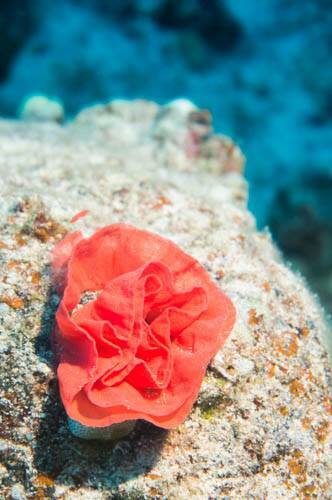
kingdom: Animalia
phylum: Mollusca
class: Gastropoda
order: Nudibranchia
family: Hexabranchidae
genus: Hexabranchus
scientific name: Hexabranchus sandwichensis
